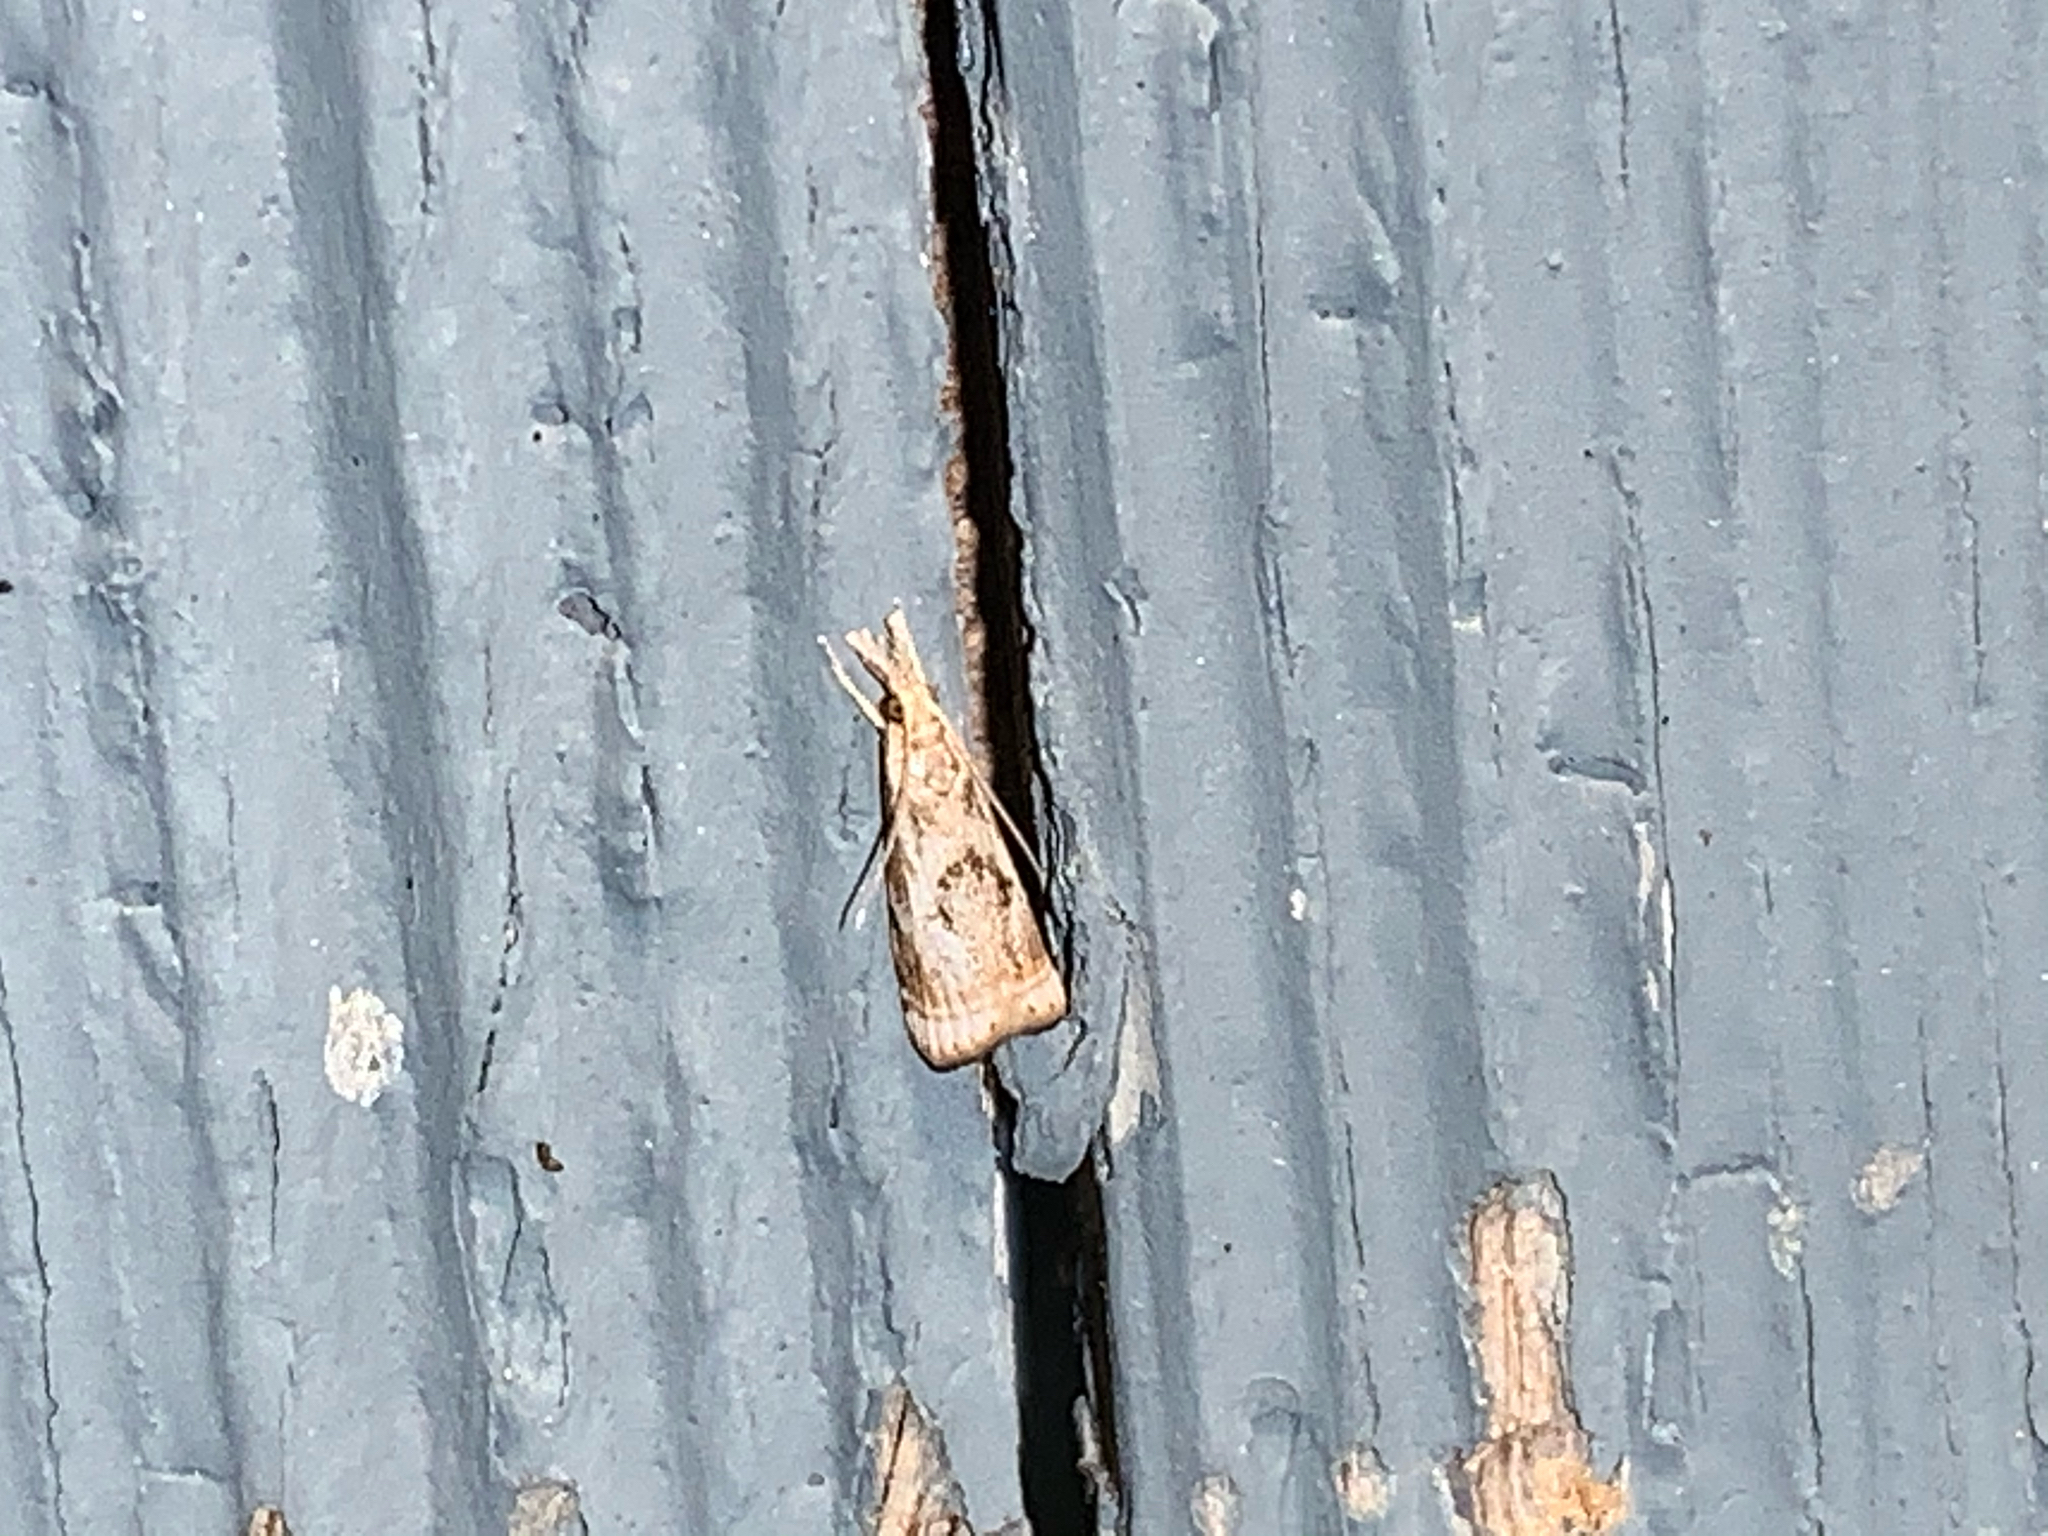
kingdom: Animalia
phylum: Arthropoda
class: Insecta
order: Lepidoptera
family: Crambidae
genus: Microcrambus
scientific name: Microcrambus elegans
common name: Elegant grass-veneer
